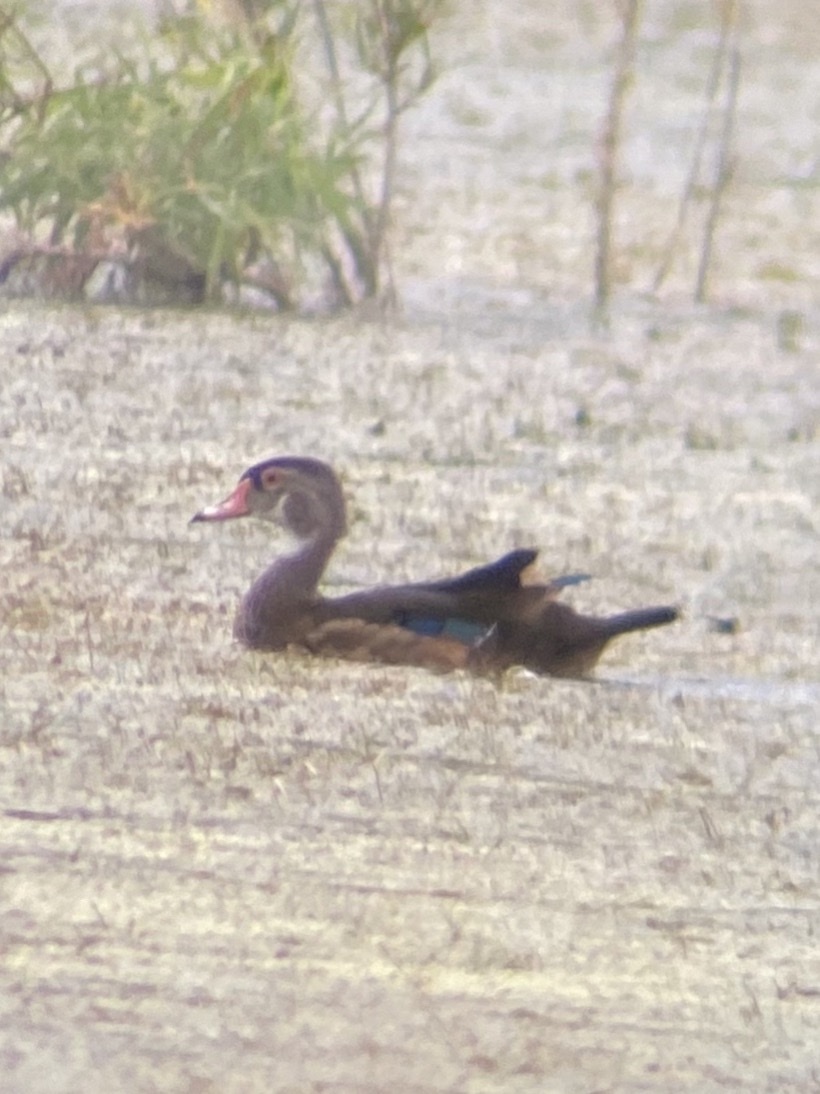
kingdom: Animalia
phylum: Chordata
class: Aves
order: Anseriformes
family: Anatidae
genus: Aix
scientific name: Aix sponsa
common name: Wood duck
